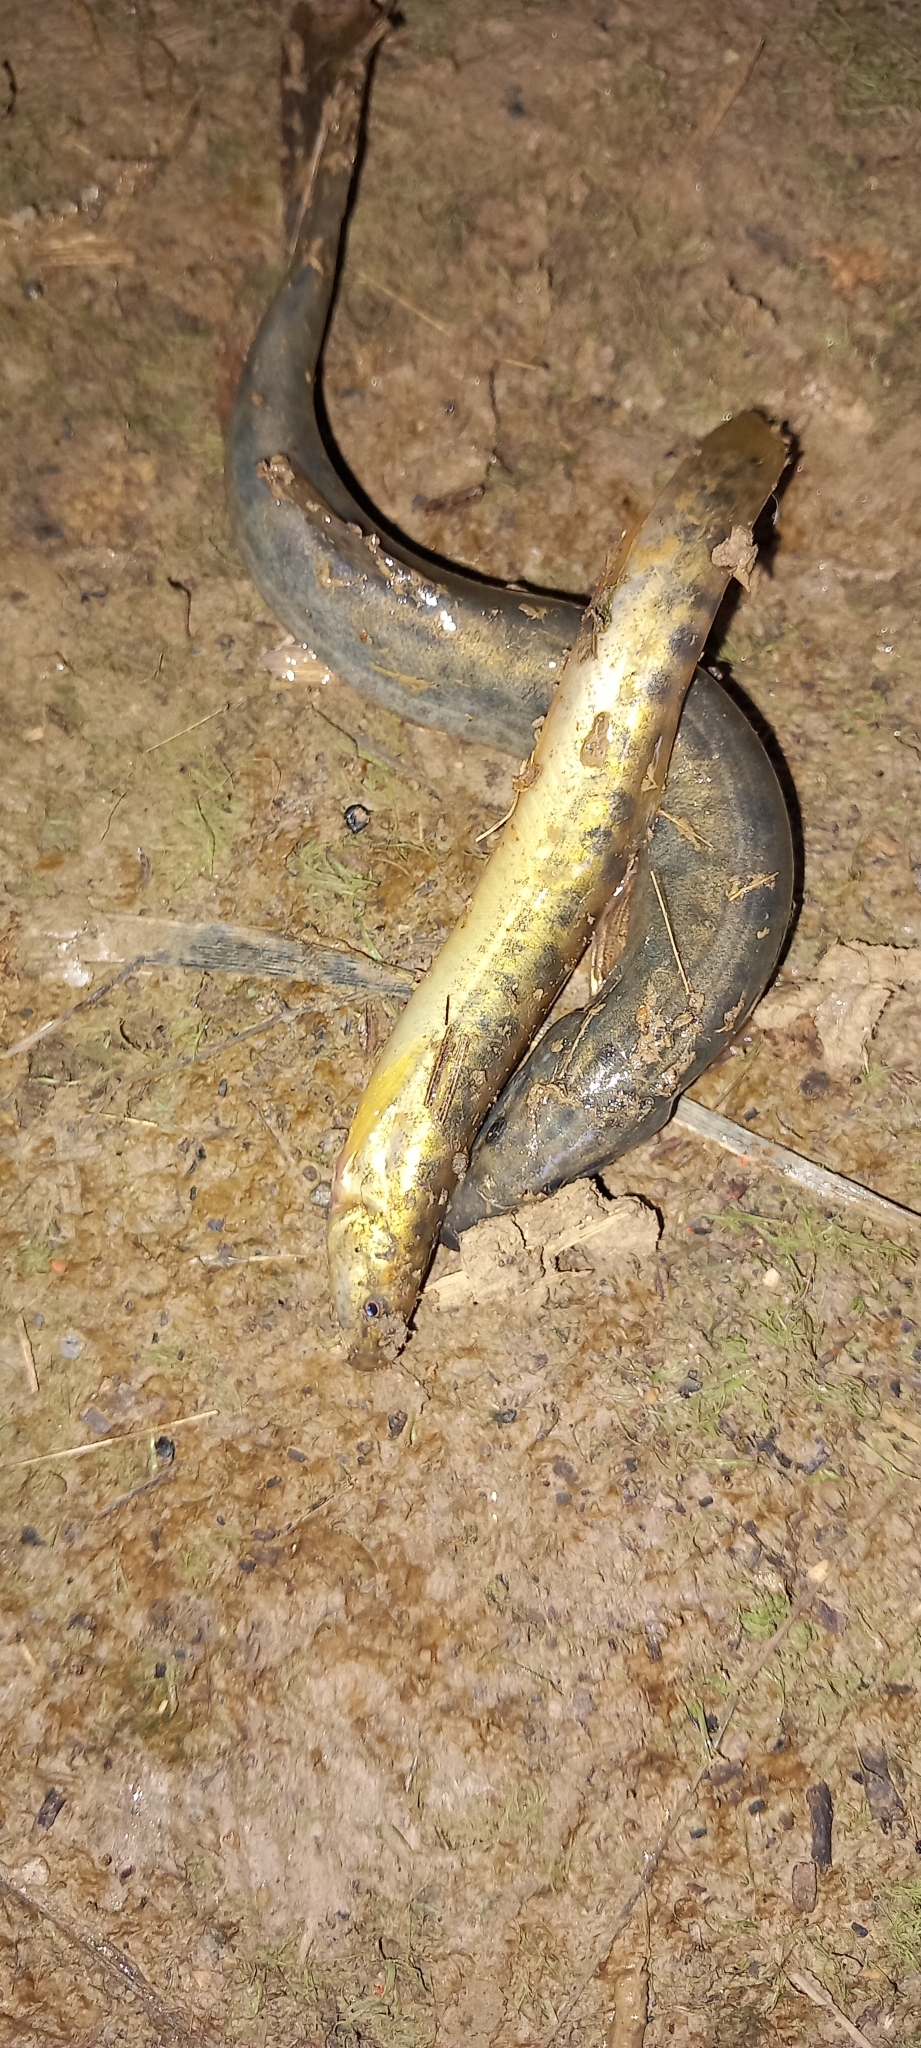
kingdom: Animalia
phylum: Chordata
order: Cypriniformes
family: Cobitidae
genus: Misgurnus
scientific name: Misgurnus anguillicaudatus
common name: Oriental weatherfish
